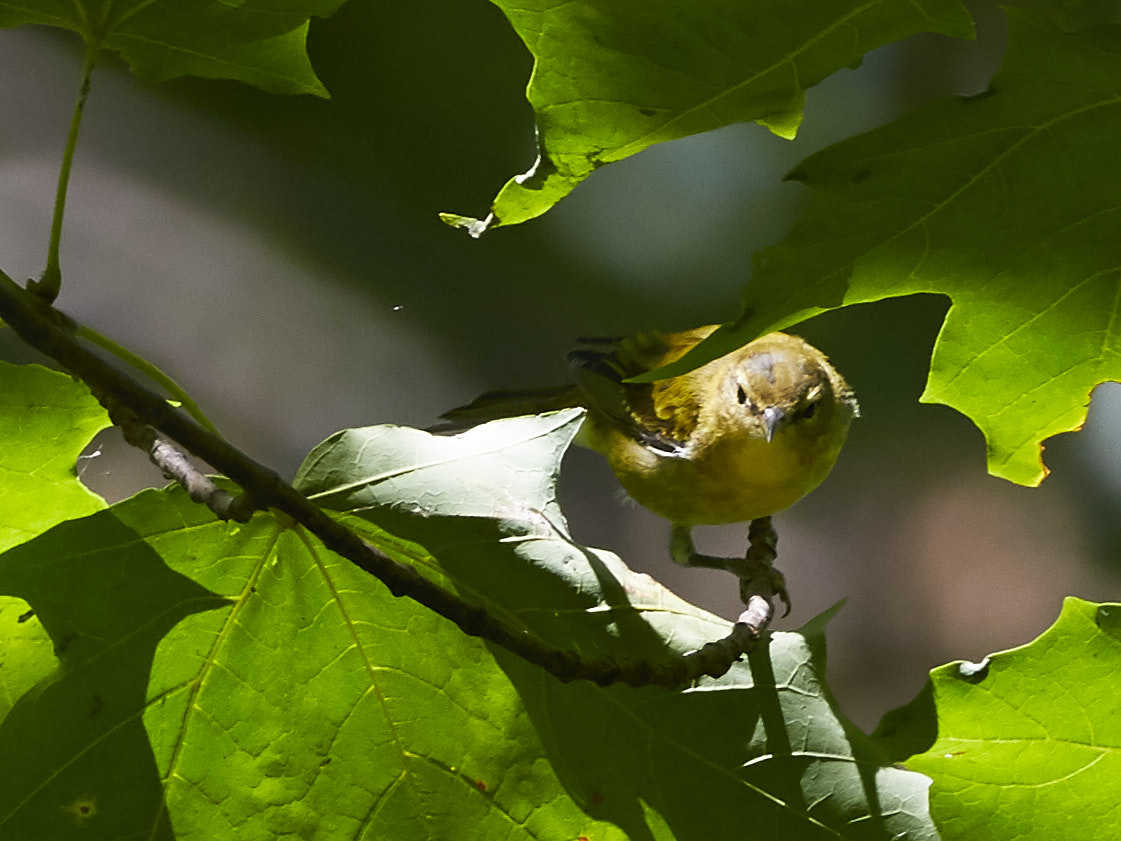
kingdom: Animalia
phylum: Chordata
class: Aves
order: Passeriformes
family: Parulidae
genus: Setophaga
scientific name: Setophaga caerulescens
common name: Black-throated blue warbler
